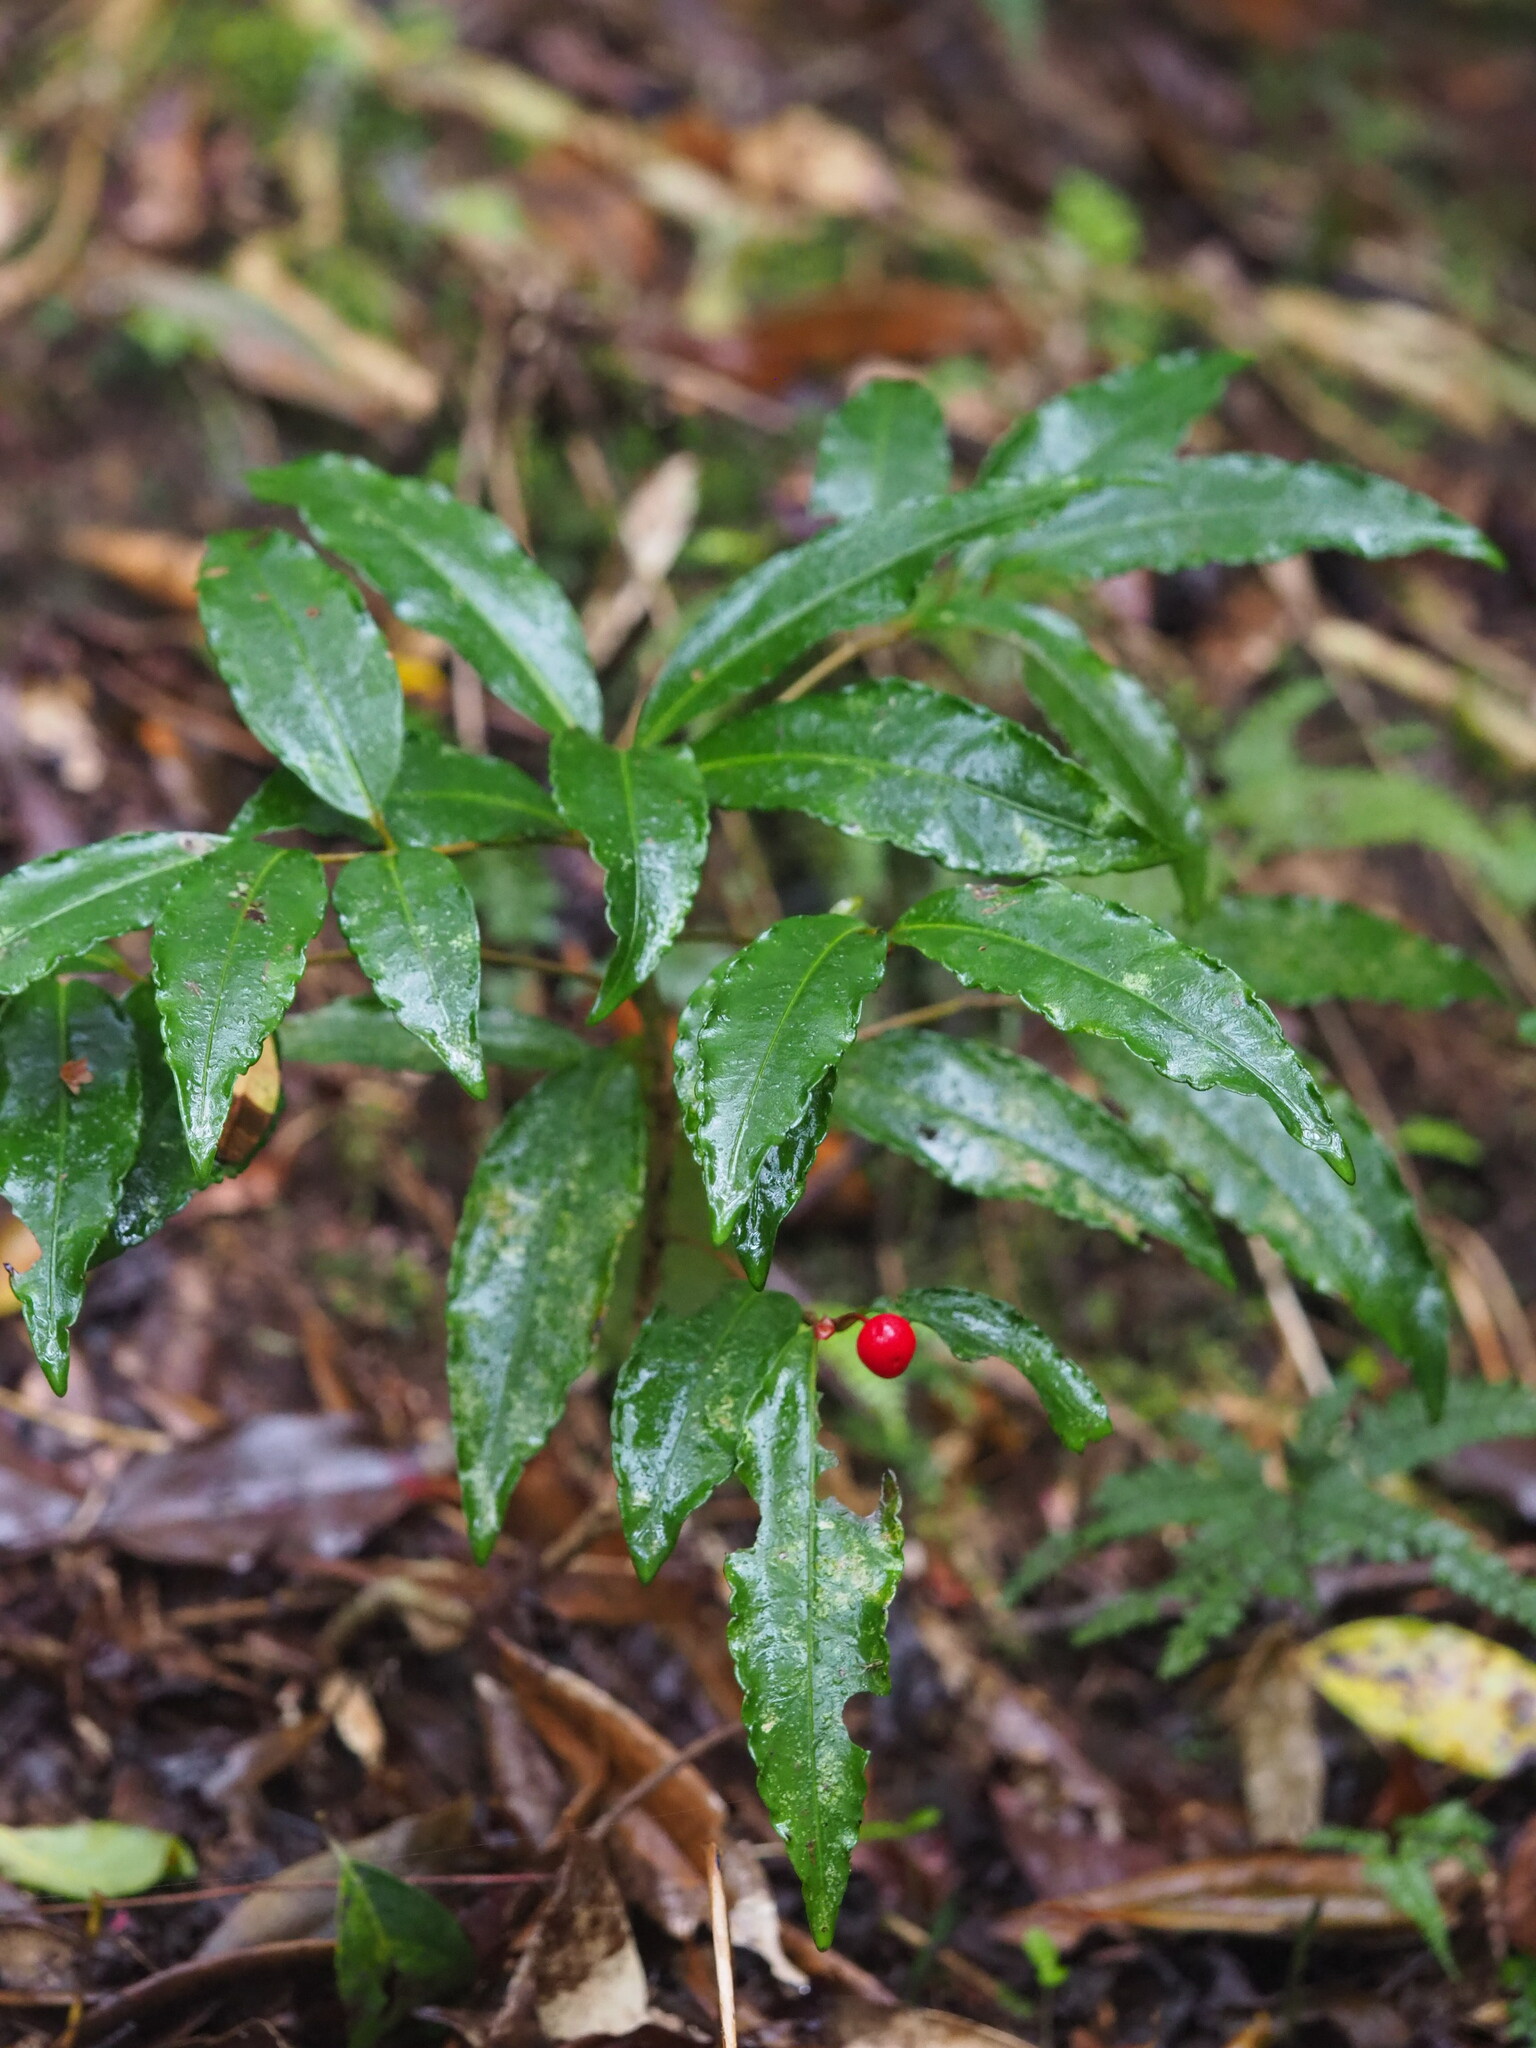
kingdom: Plantae
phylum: Tracheophyta
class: Magnoliopsida
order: Ericales
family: Primulaceae
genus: Ardisia
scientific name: Ardisia crenata
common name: Hen's eyes
